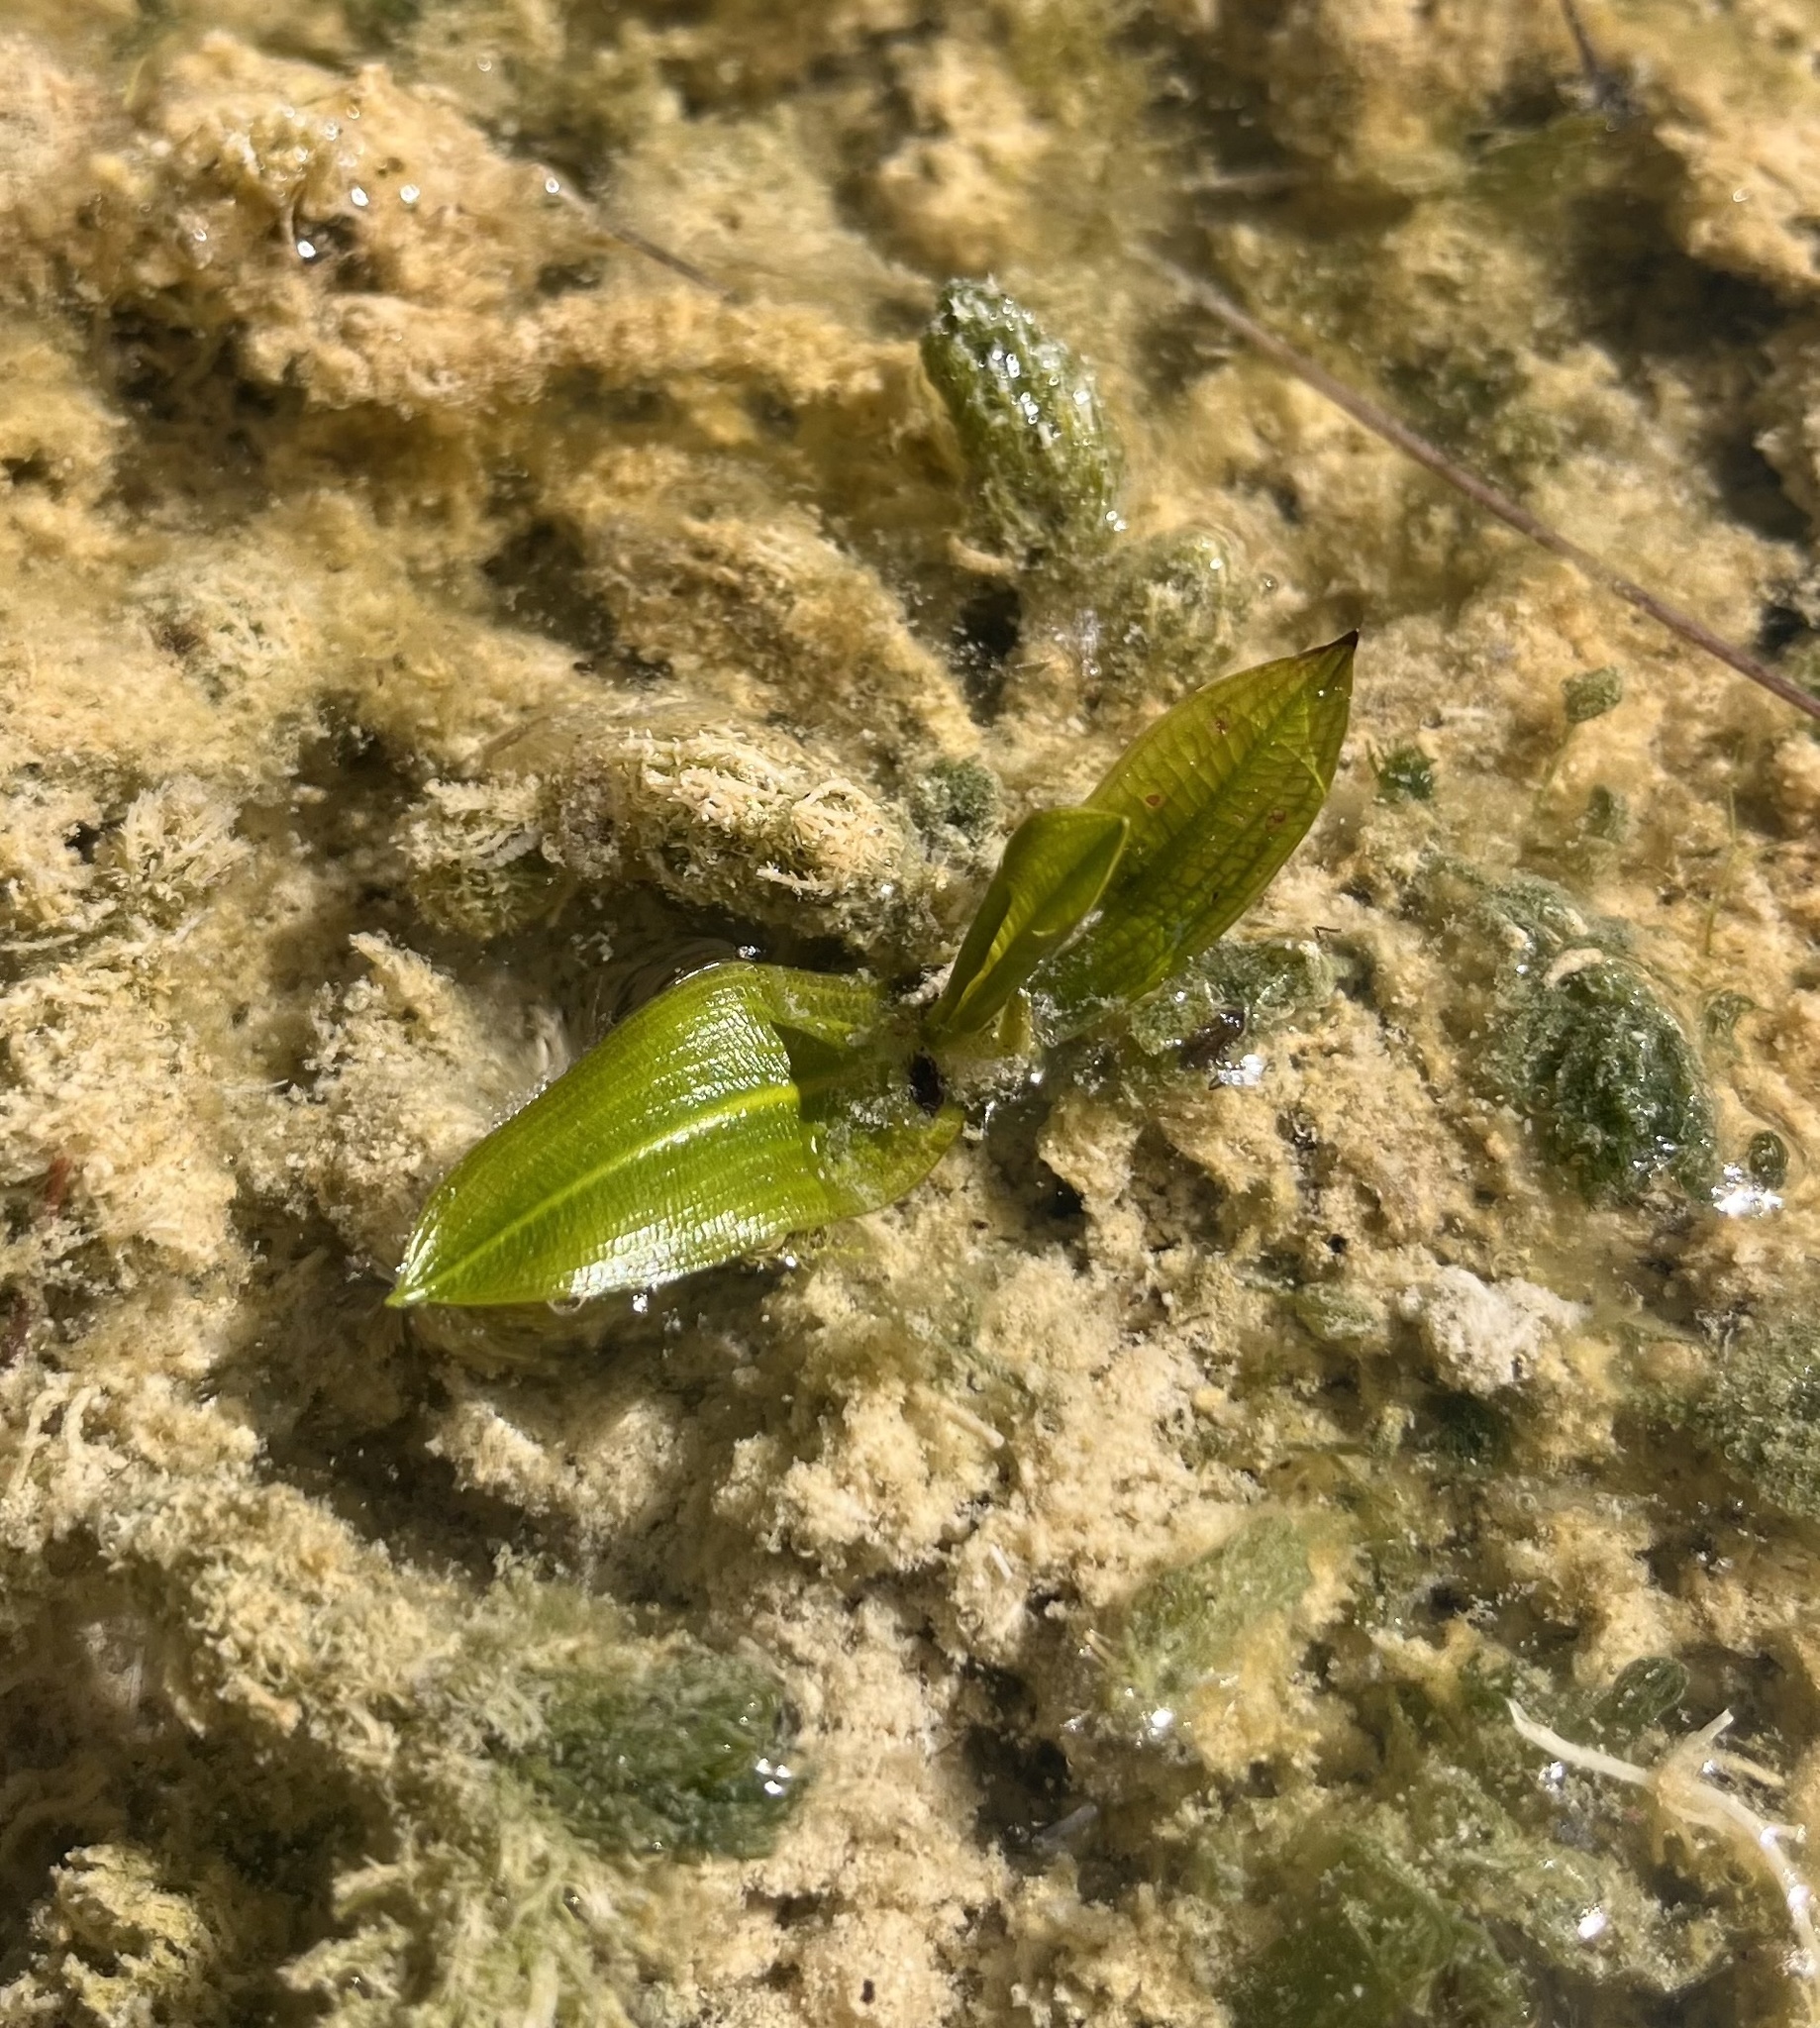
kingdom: Plantae
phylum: Tracheophyta
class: Liliopsida
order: Alismatales
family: Potamogetonaceae
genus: Potamogeton
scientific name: Potamogeton illinoensis
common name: Illinois pondweed
